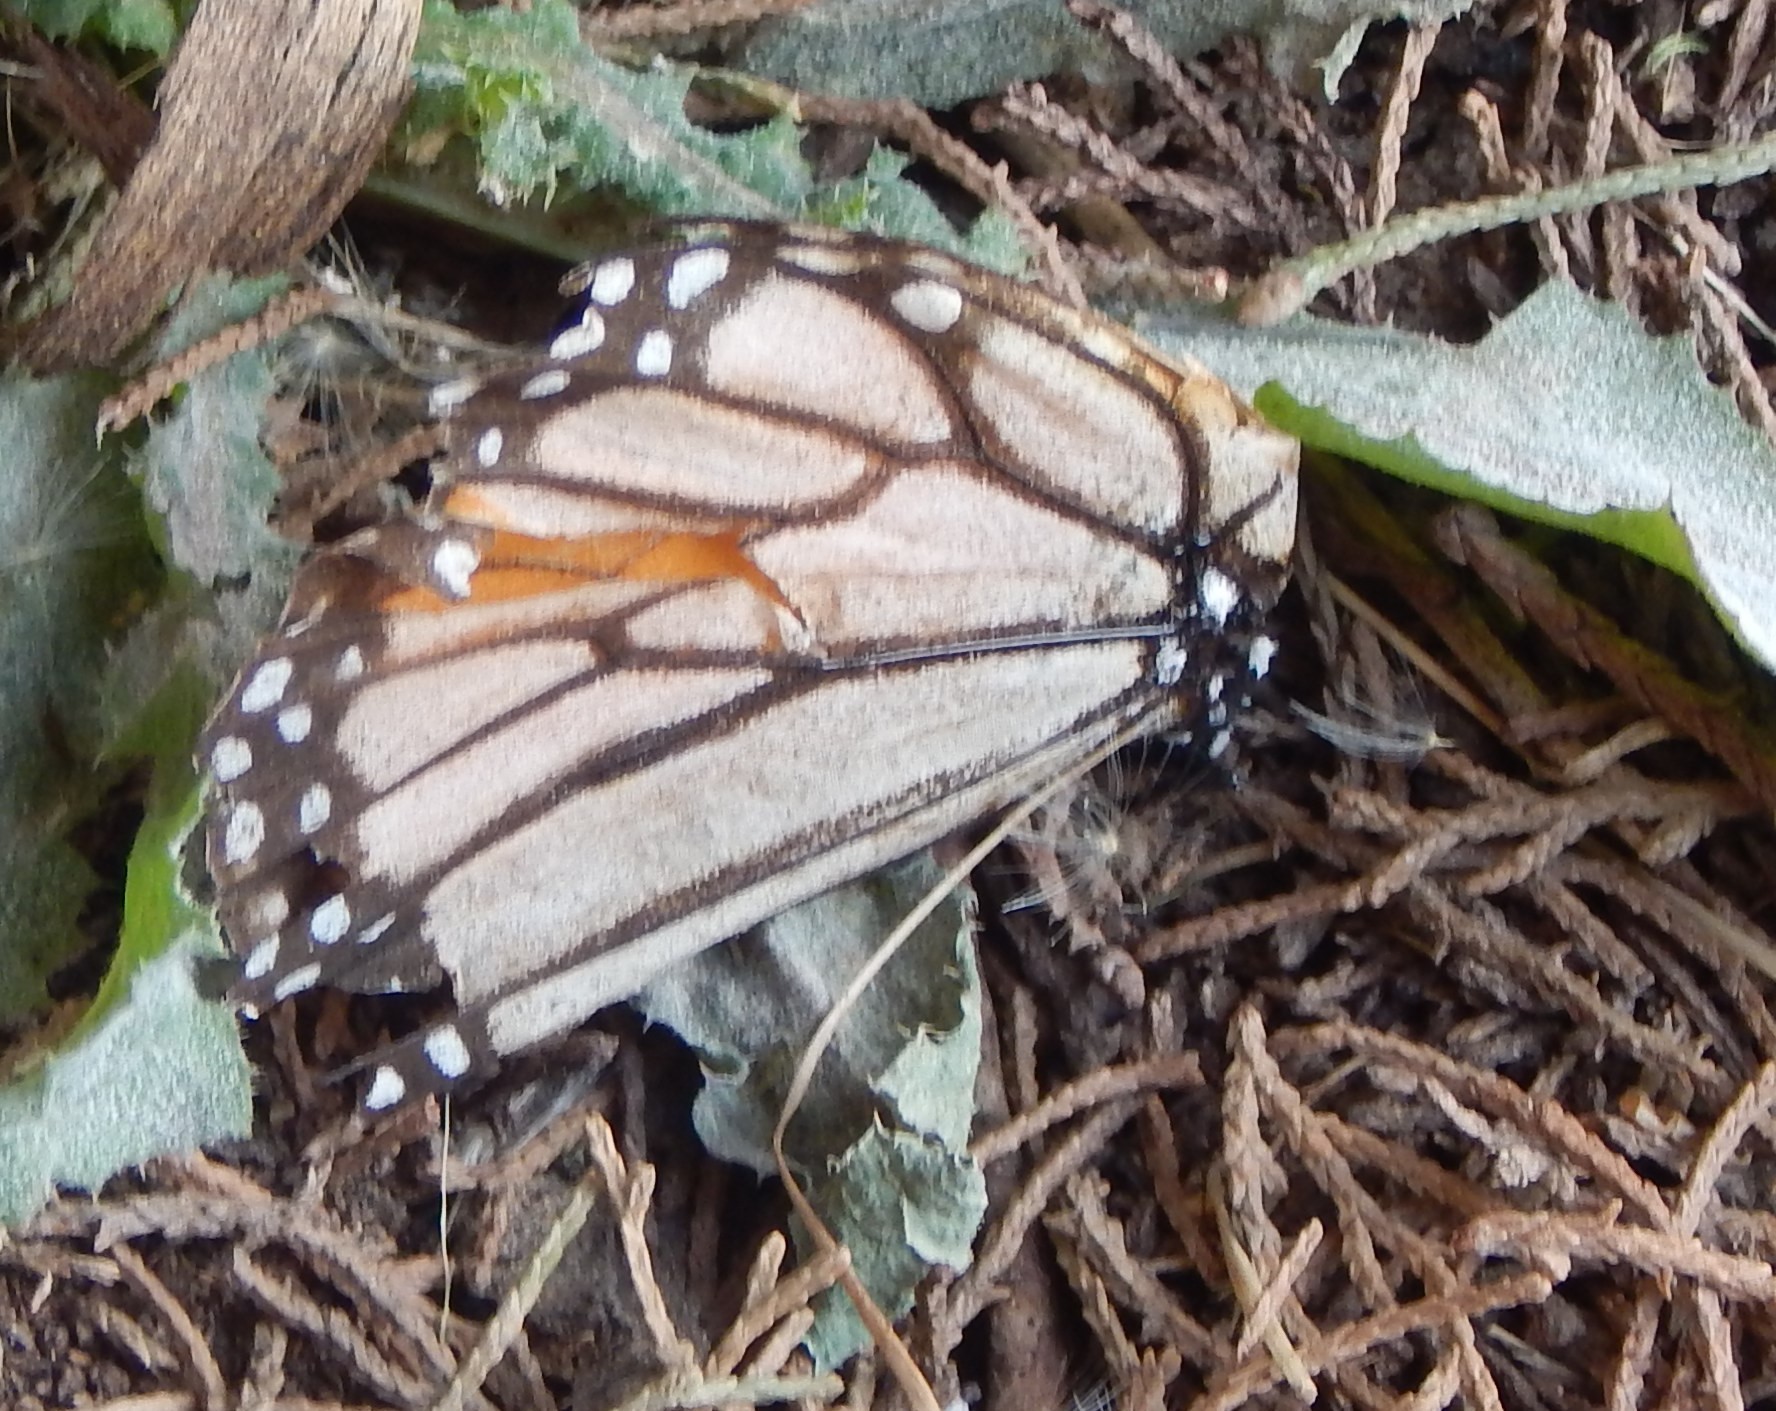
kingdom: Animalia
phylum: Arthropoda
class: Insecta
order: Lepidoptera
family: Nymphalidae
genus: Danaus
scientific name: Danaus plexippus
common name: Monarch
